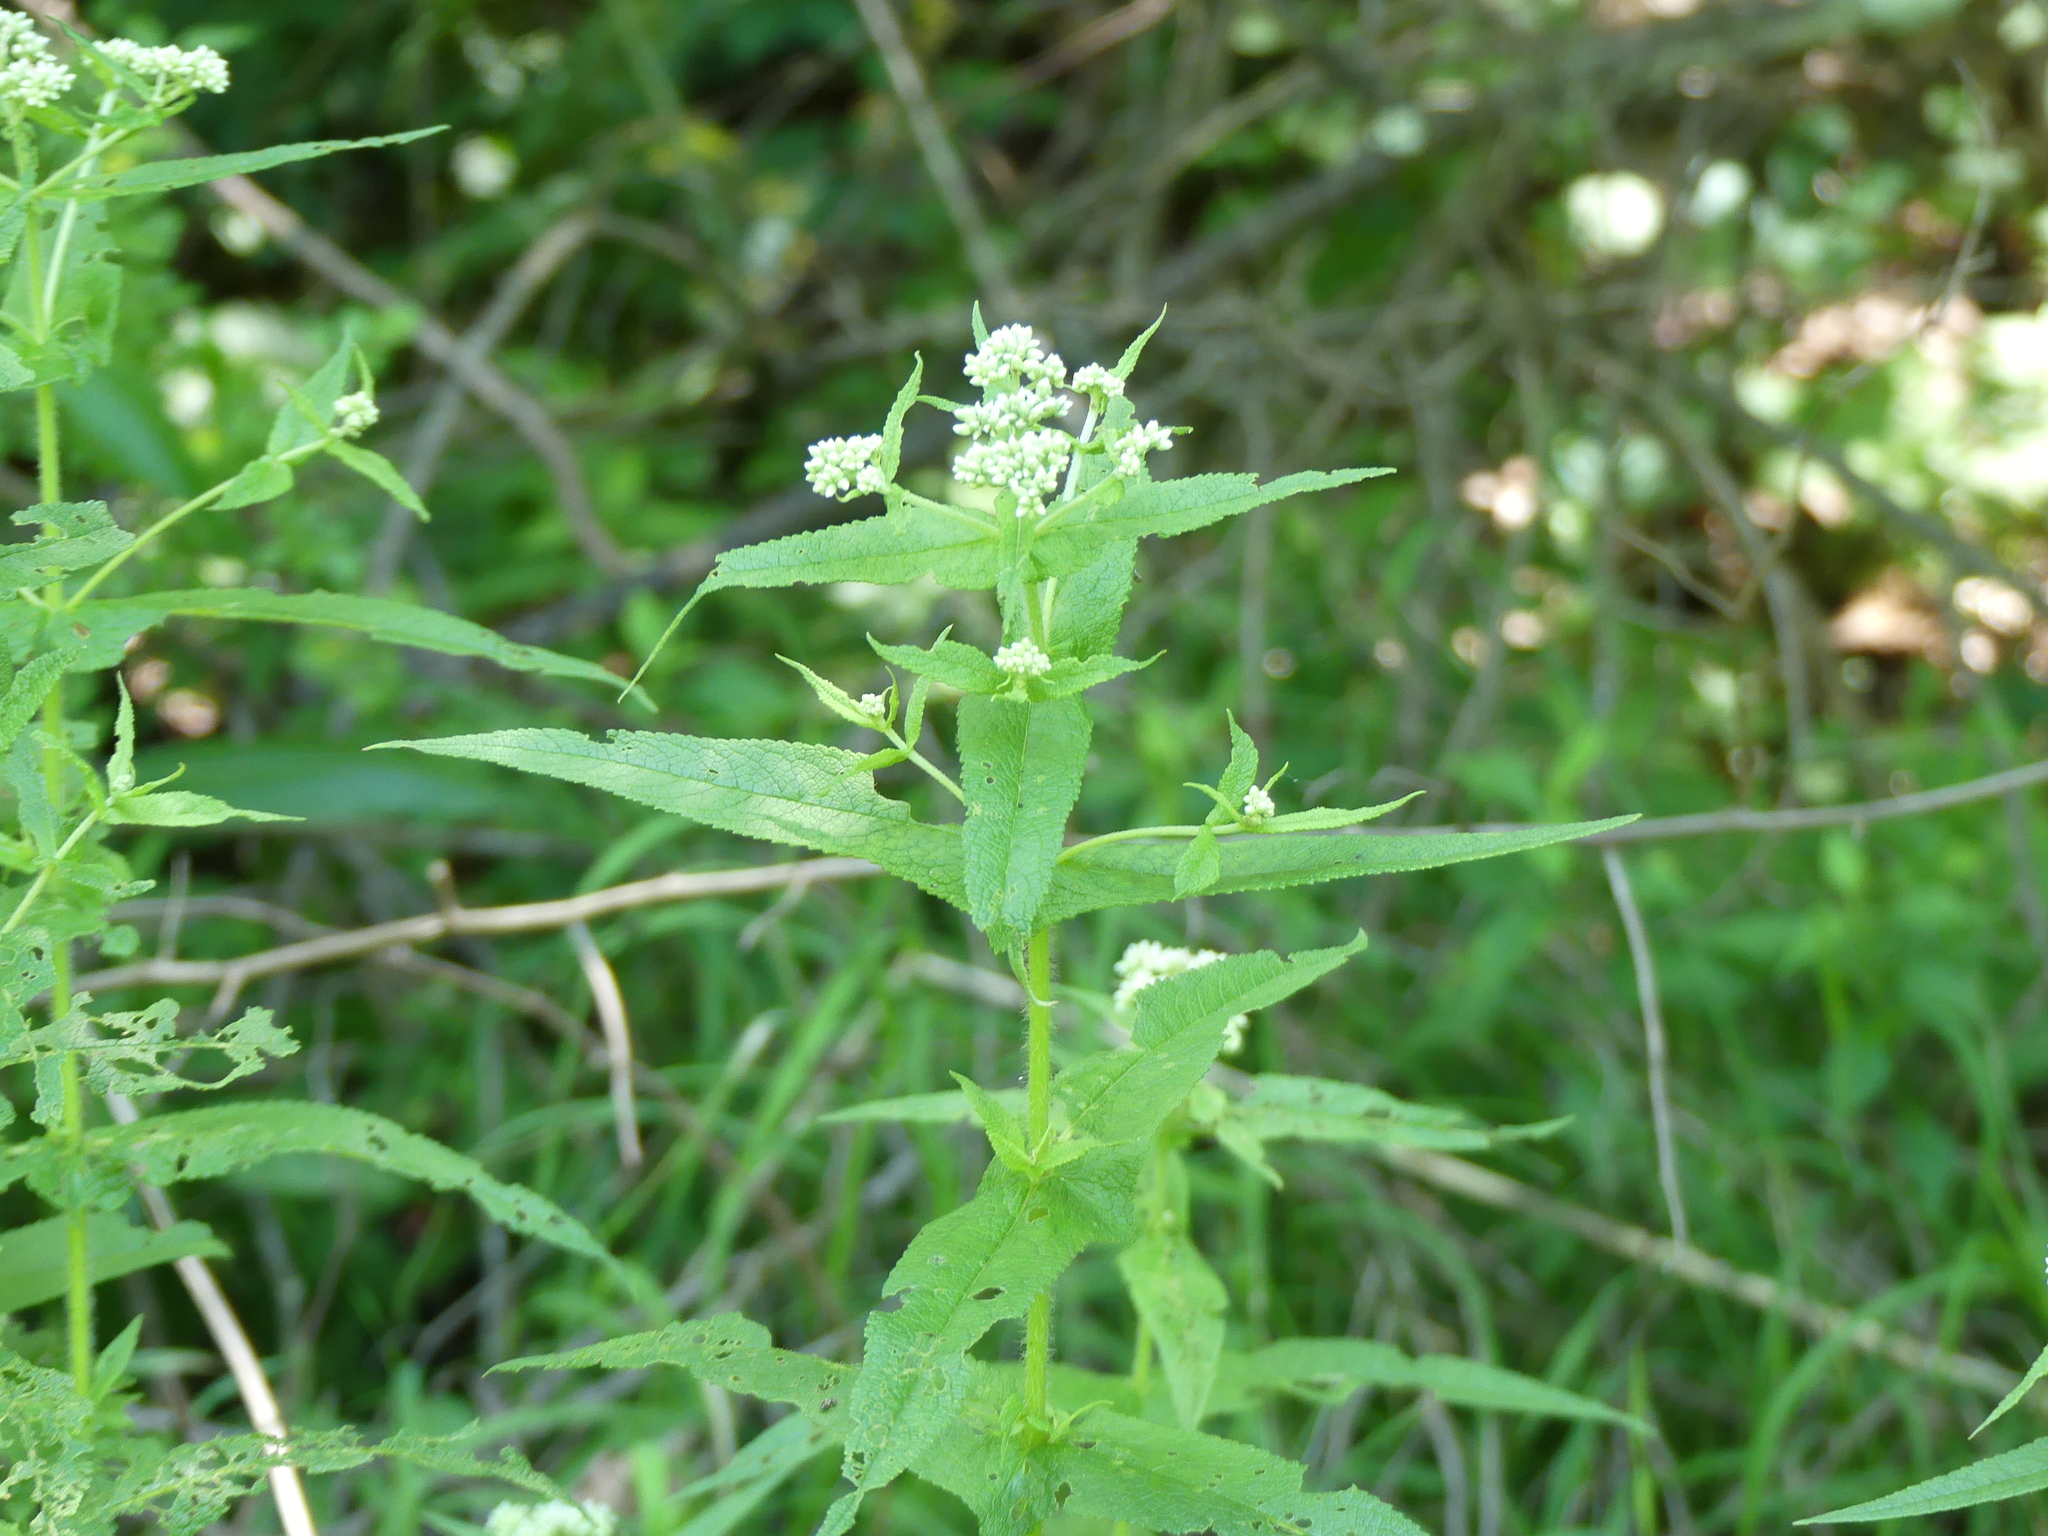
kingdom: Plantae
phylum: Tracheophyta
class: Magnoliopsida
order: Asterales
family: Asteraceae
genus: Eupatorium
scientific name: Eupatorium perfoliatum
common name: Boneset
